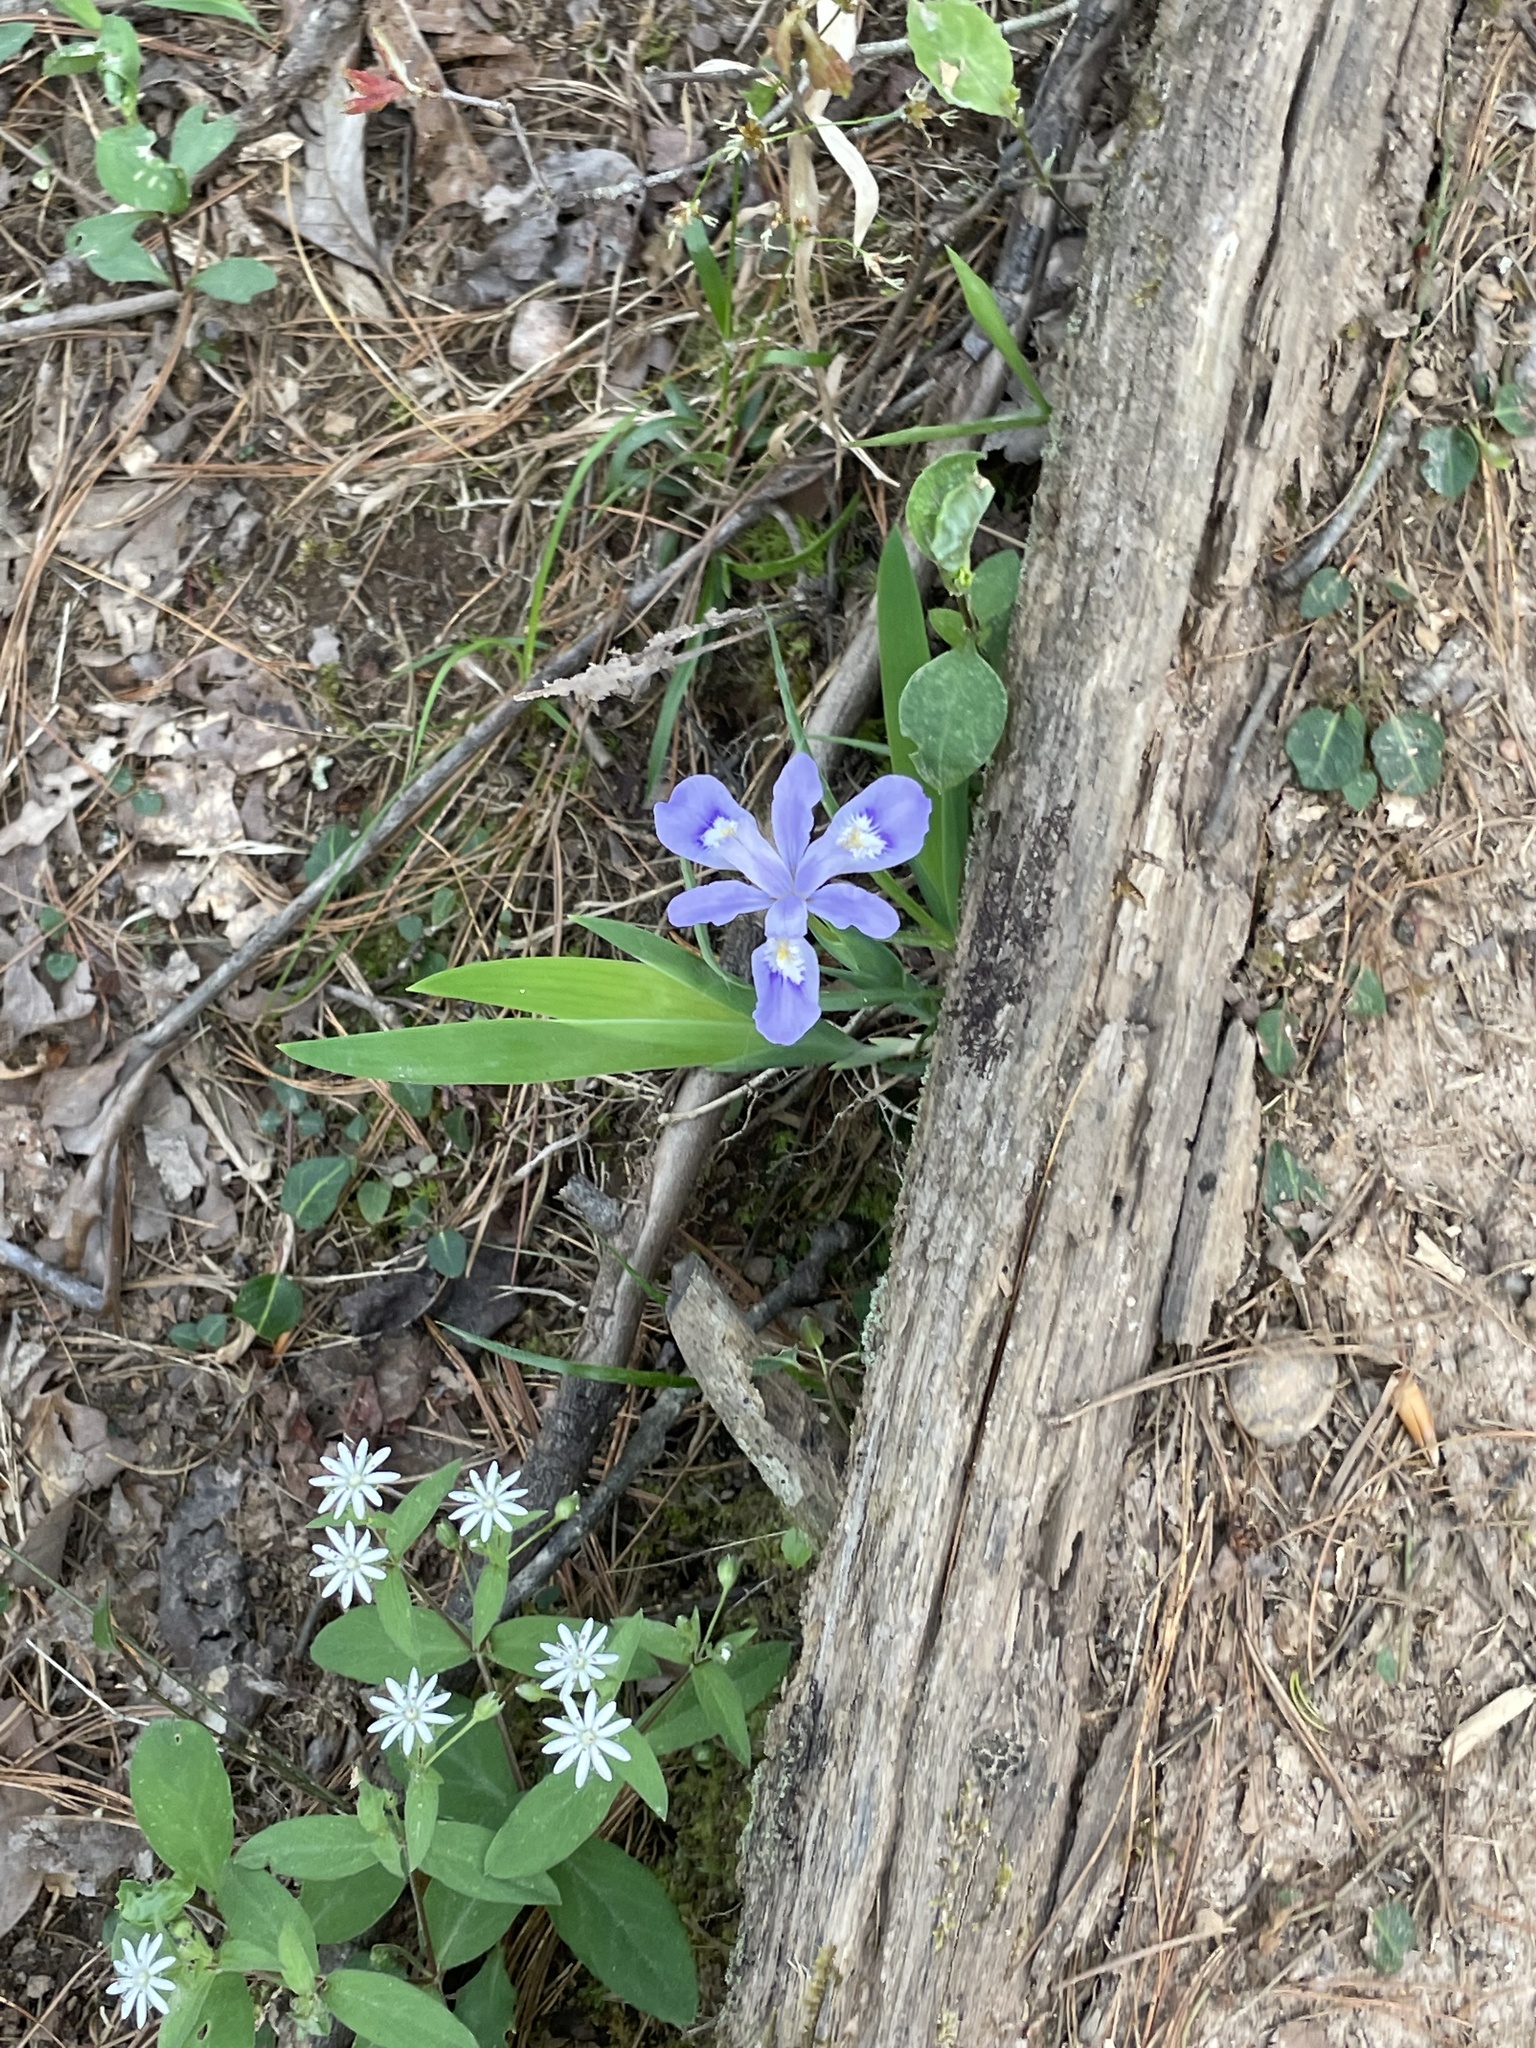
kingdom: Plantae
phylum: Tracheophyta
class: Liliopsida
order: Asparagales
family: Iridaceae
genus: Iris
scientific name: Iris cristata
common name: Crested iris
